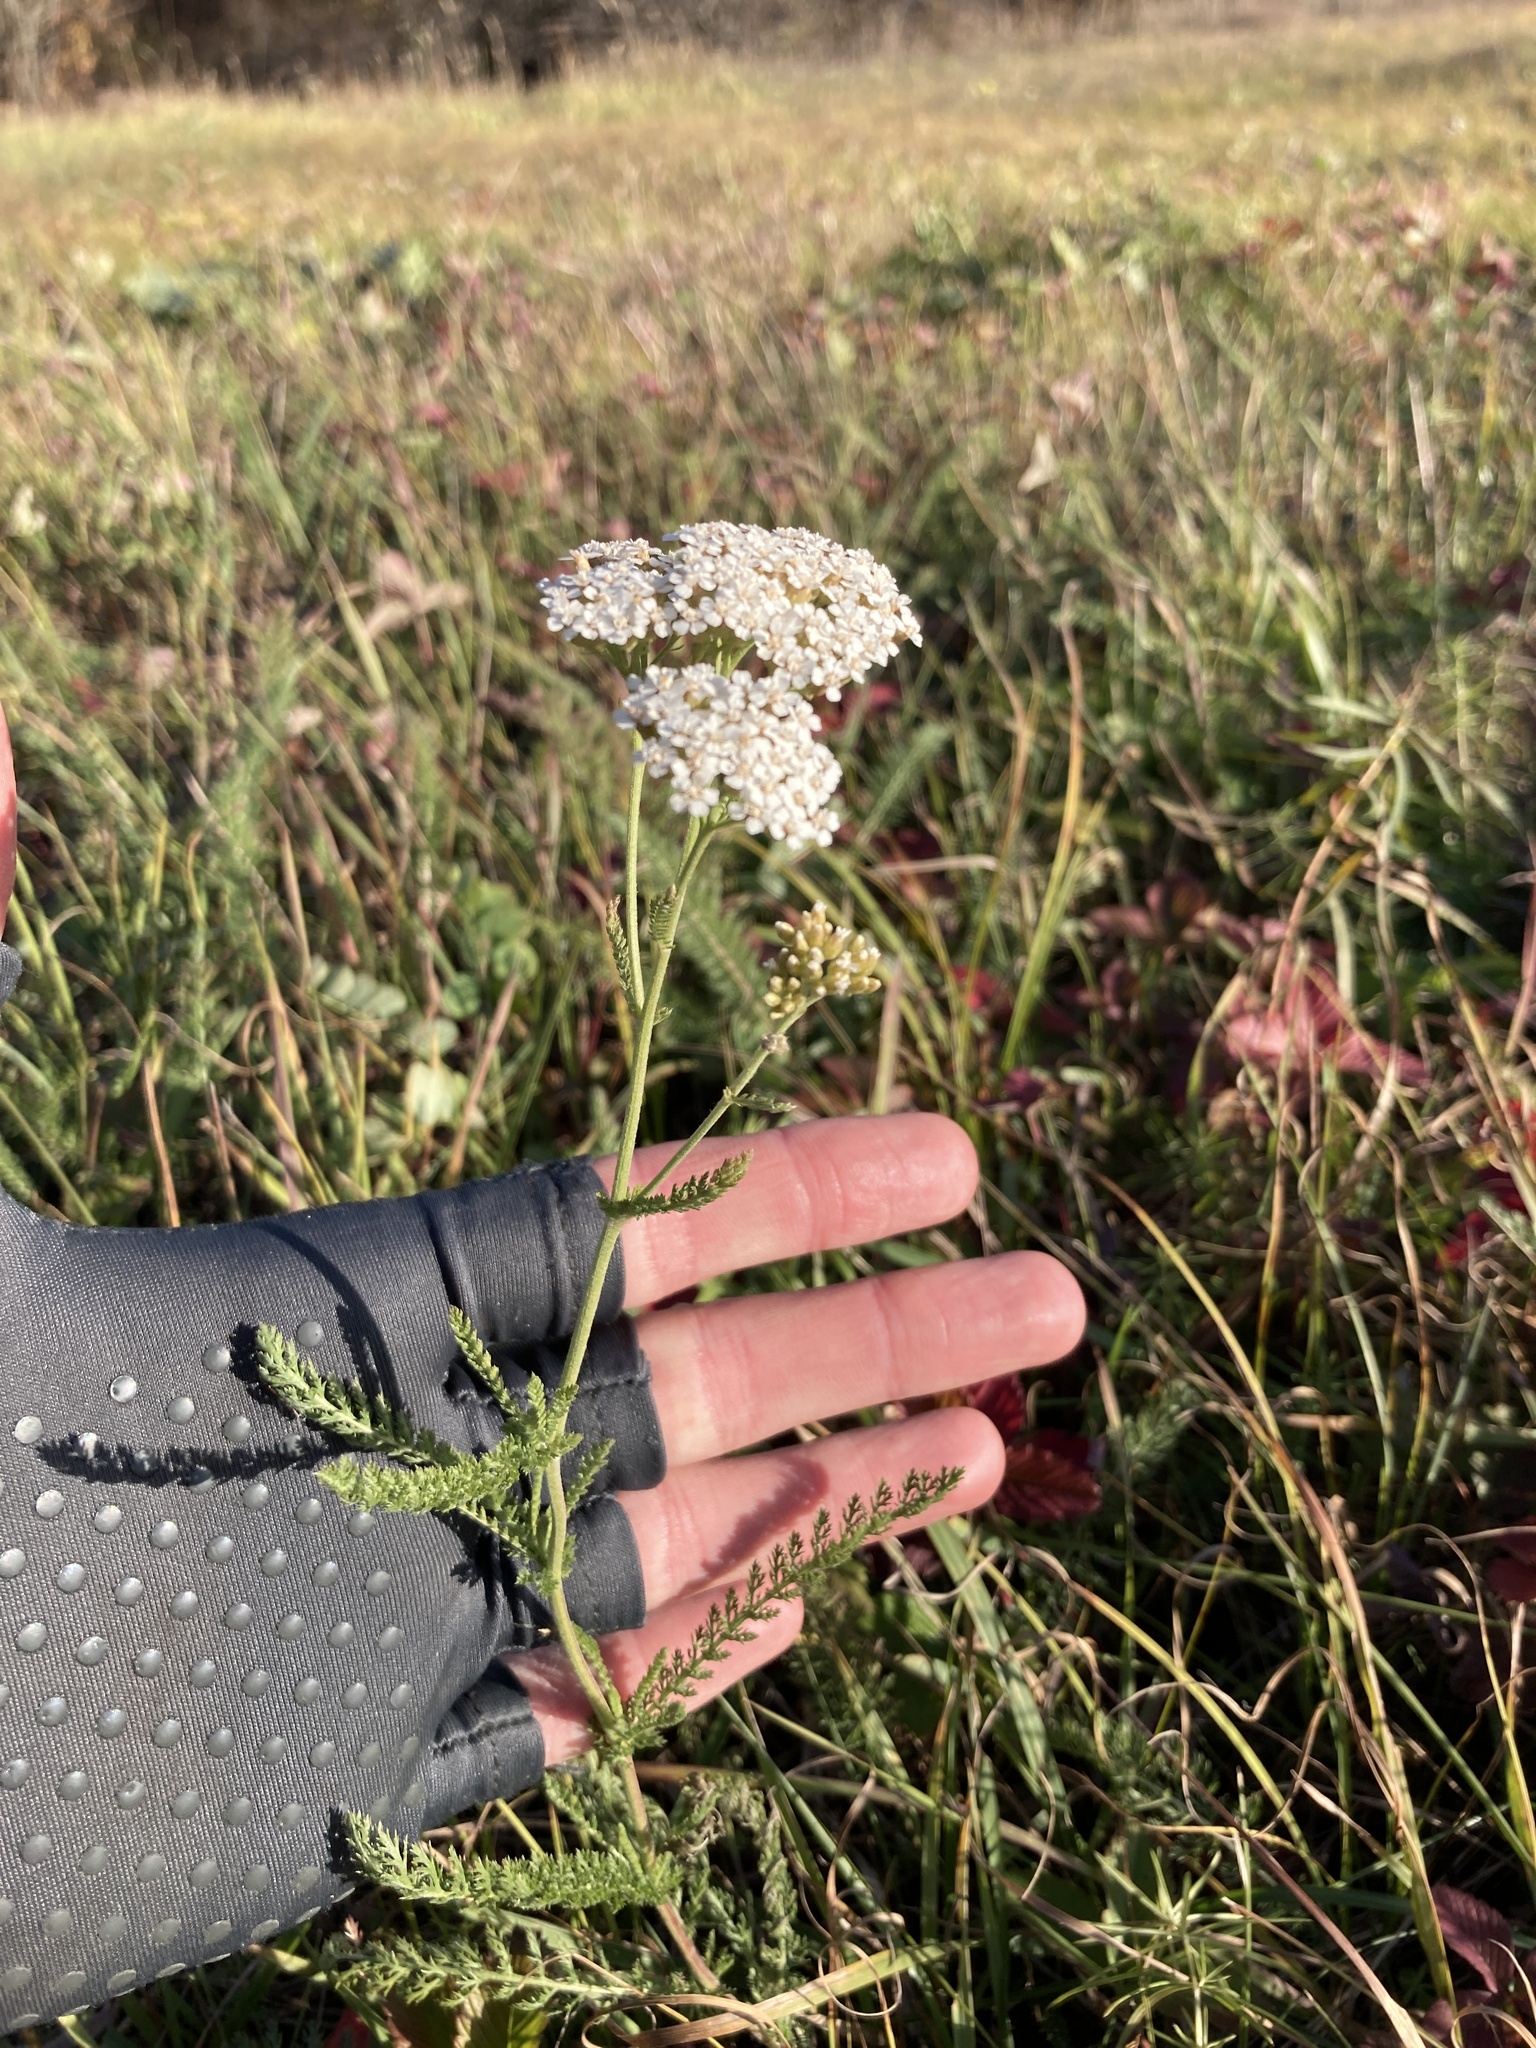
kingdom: Plantae
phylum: Tracheophyta
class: Magnoliopsida
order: Asterales
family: Asteraceae
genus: Achillea
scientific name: Achillea millefolium
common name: Yarrow
